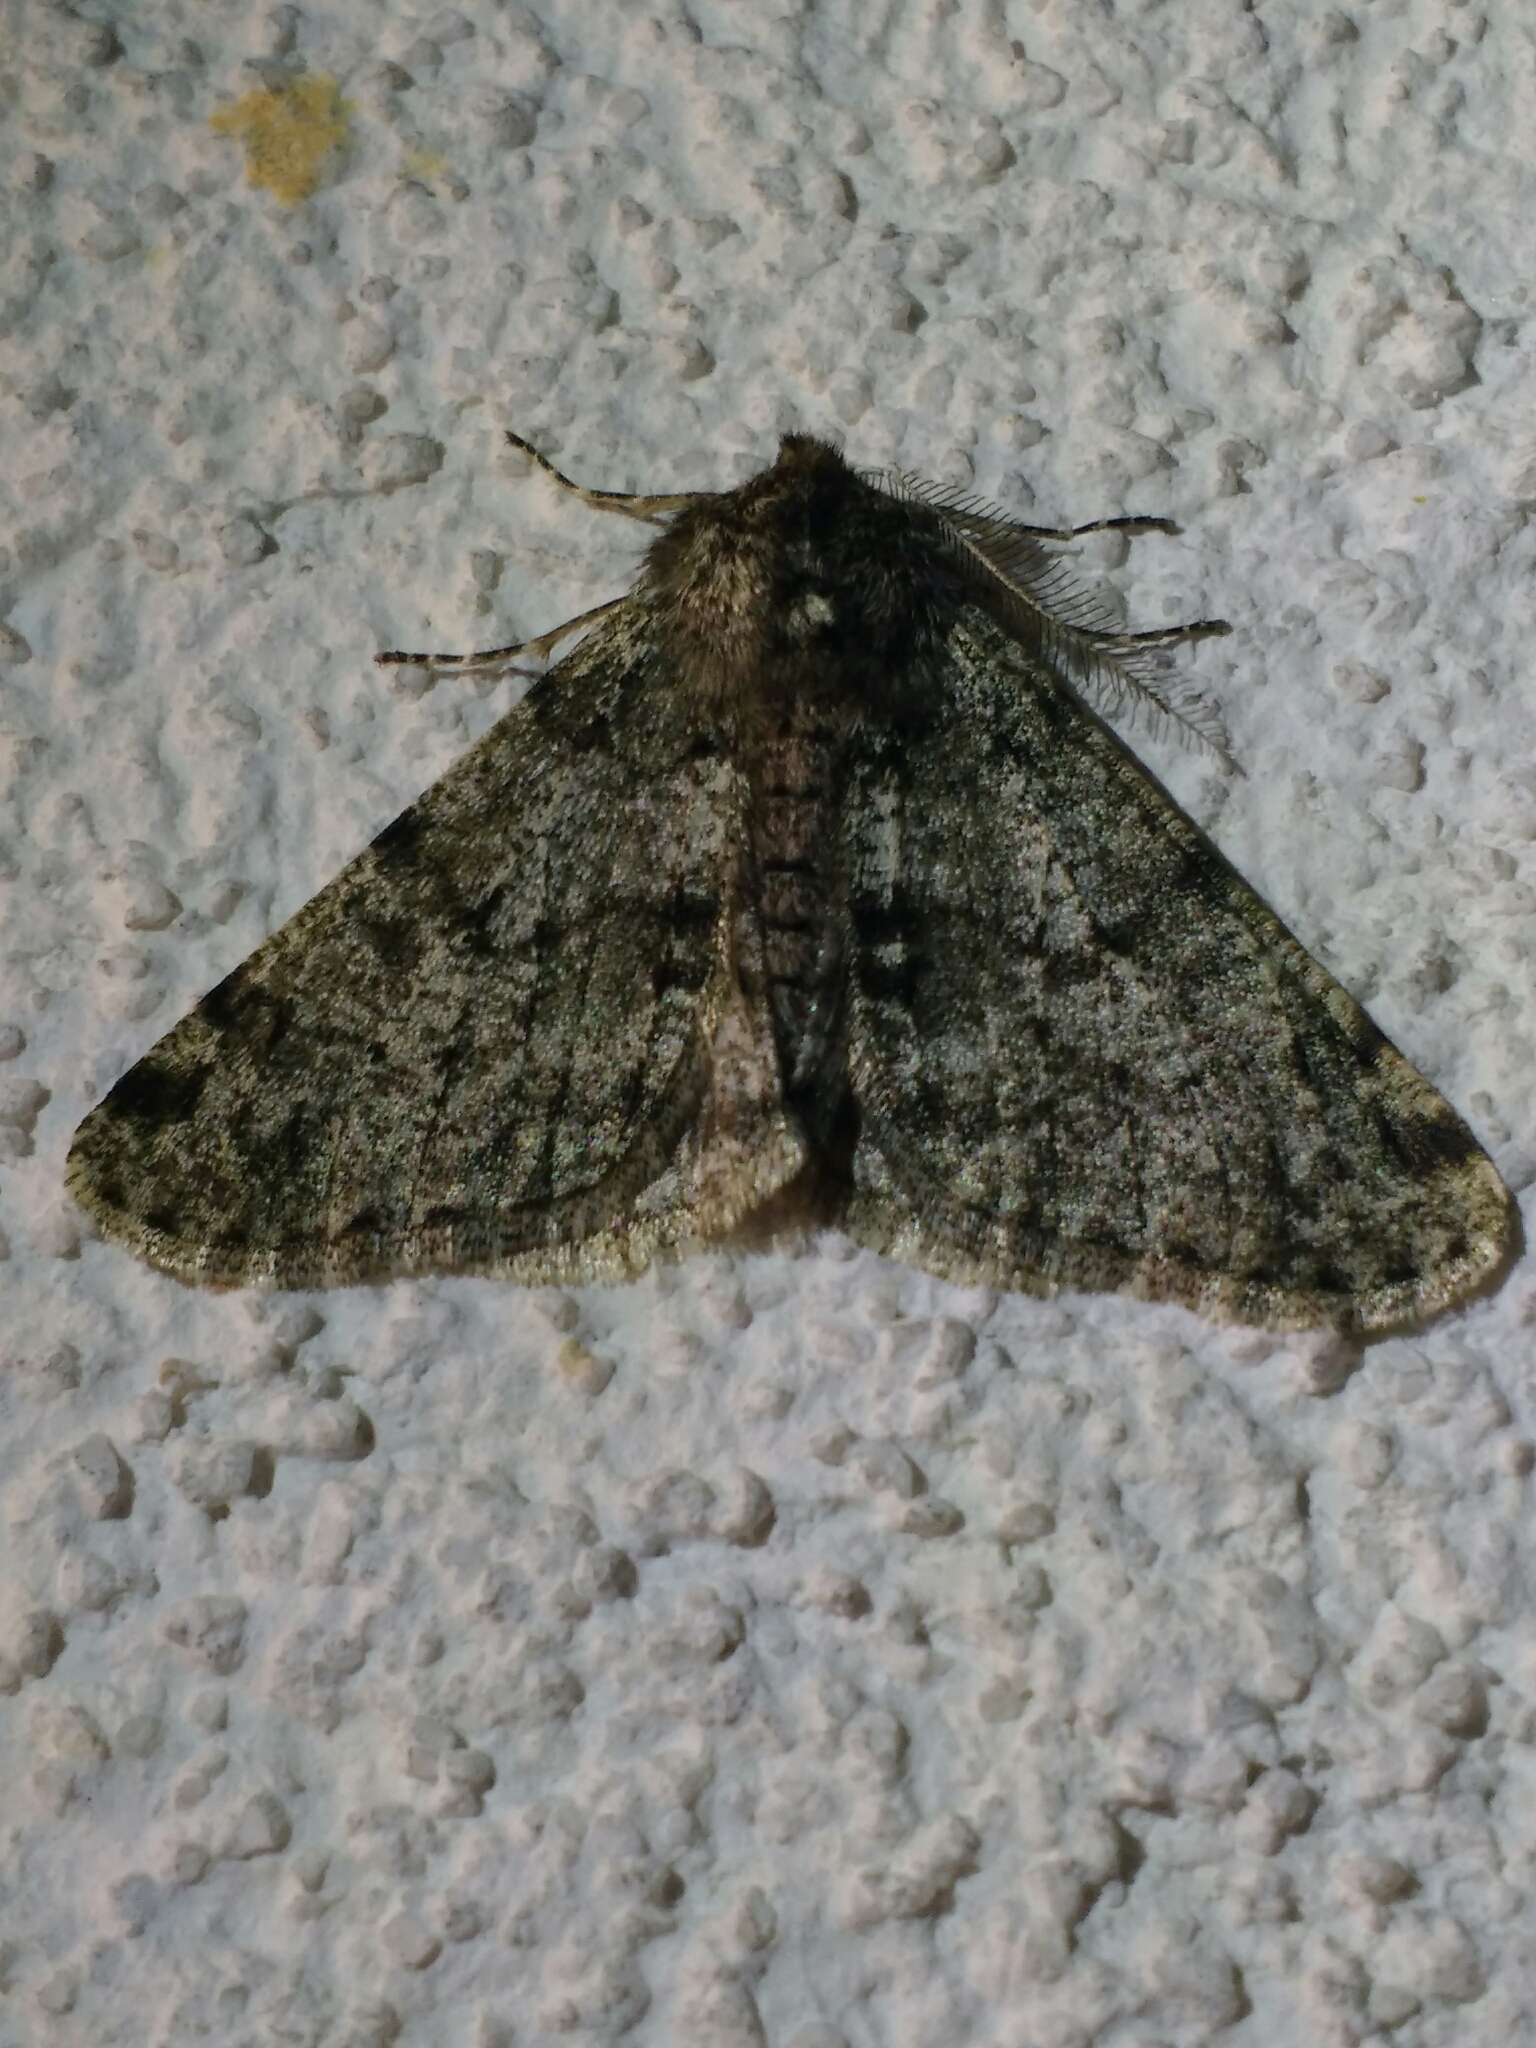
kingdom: Animalia
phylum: Arthropoda
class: Insecta
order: Lepidoptera
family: Geometridae
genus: Phigalia
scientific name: Phigalia pilosaria
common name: Pale brindled beauty
